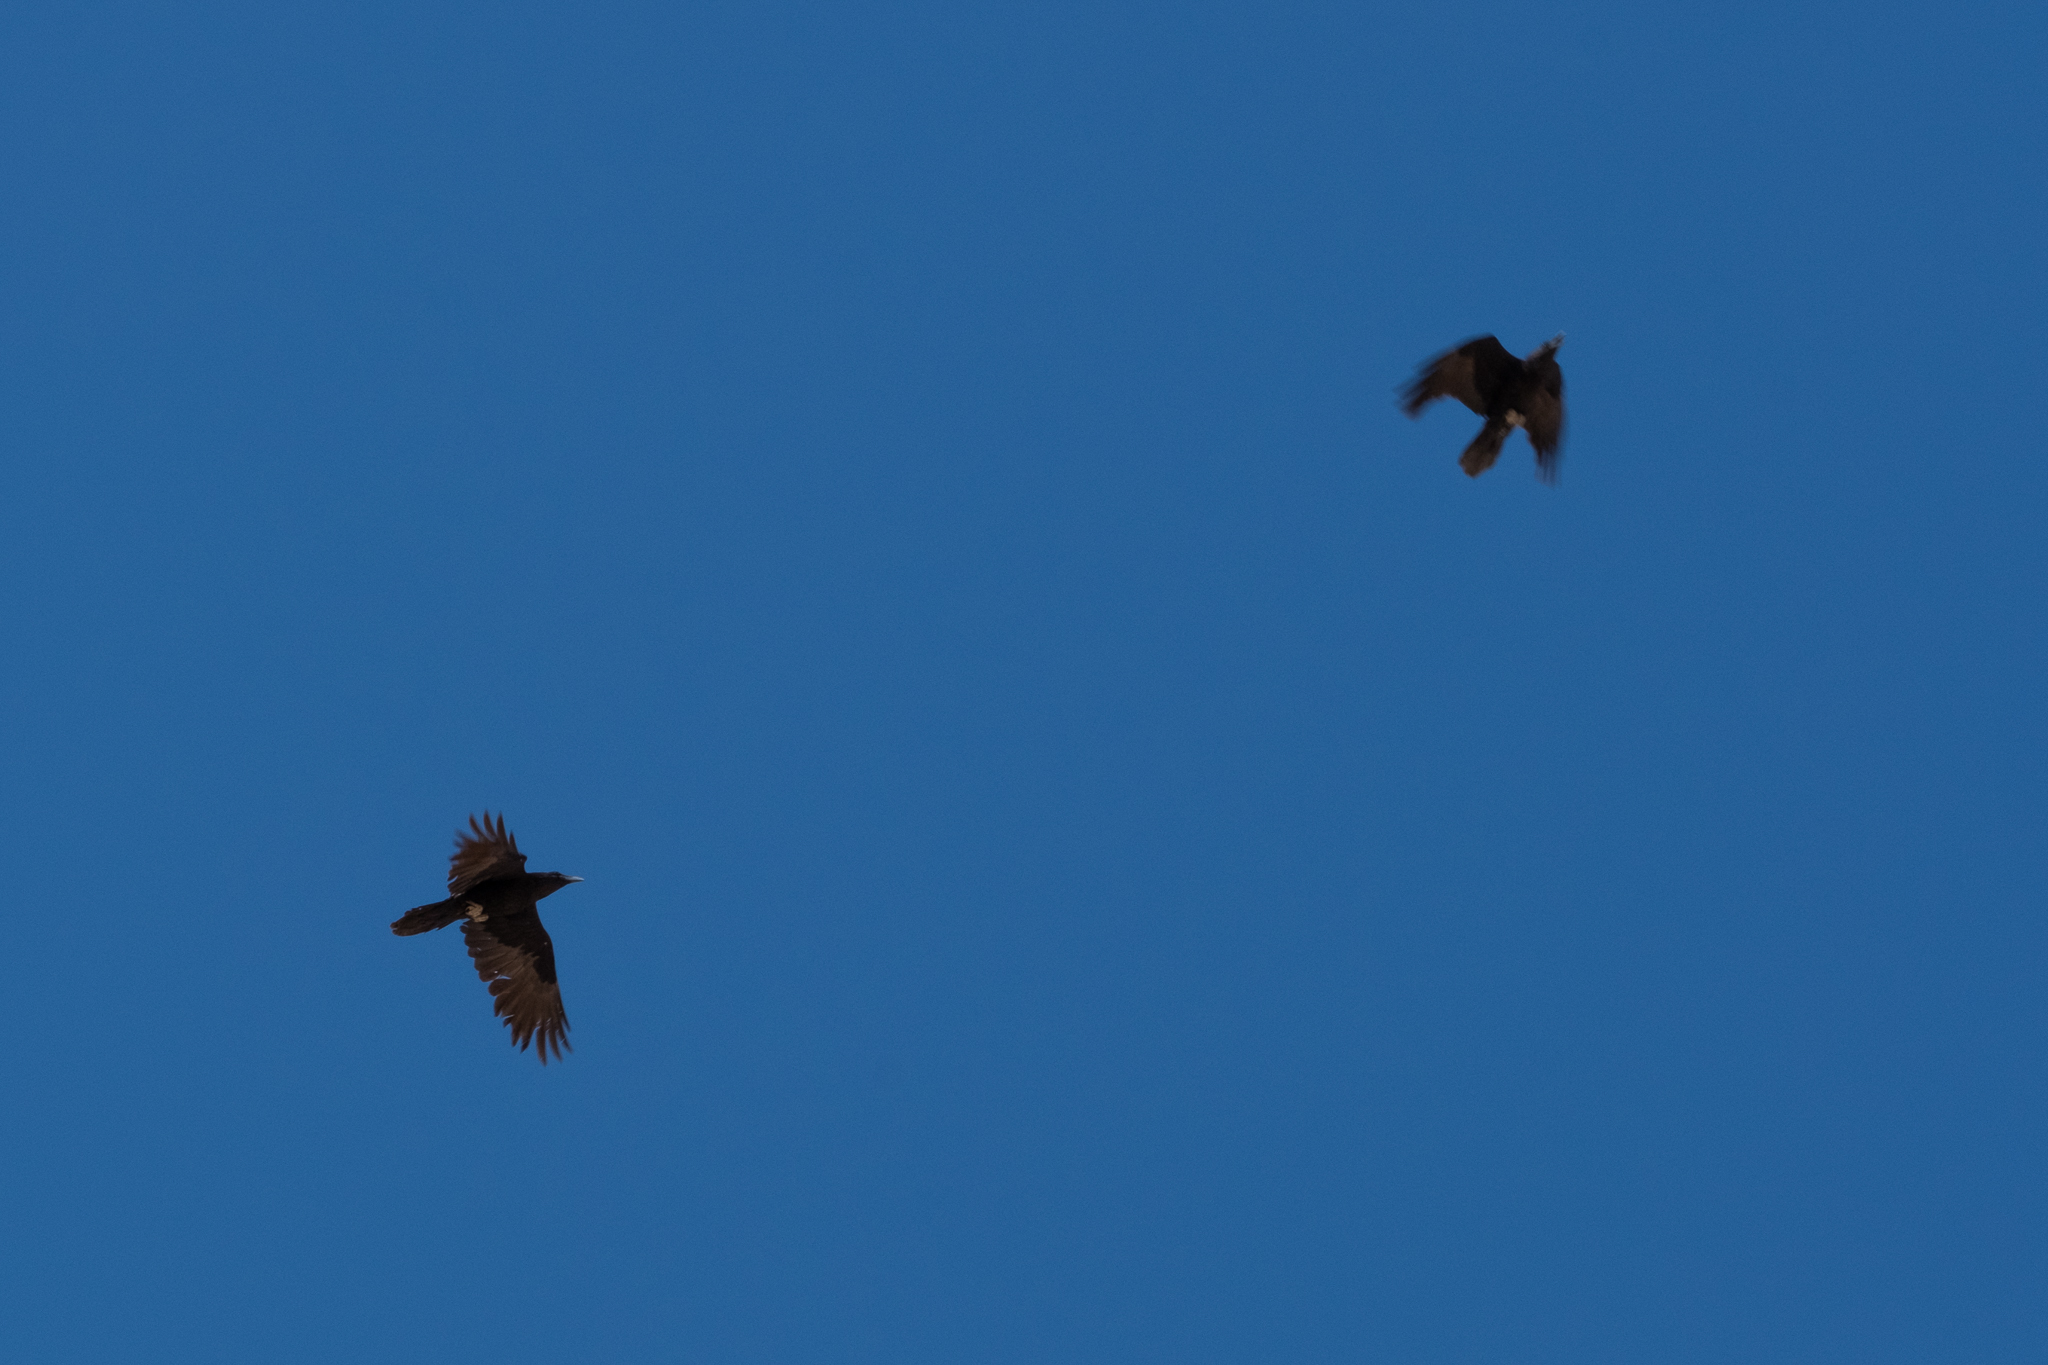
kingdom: Animalia
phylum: Chordata
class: Aves
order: Passeriformes
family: Corvidae
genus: Corvus
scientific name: Corvus corax
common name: Common raven
